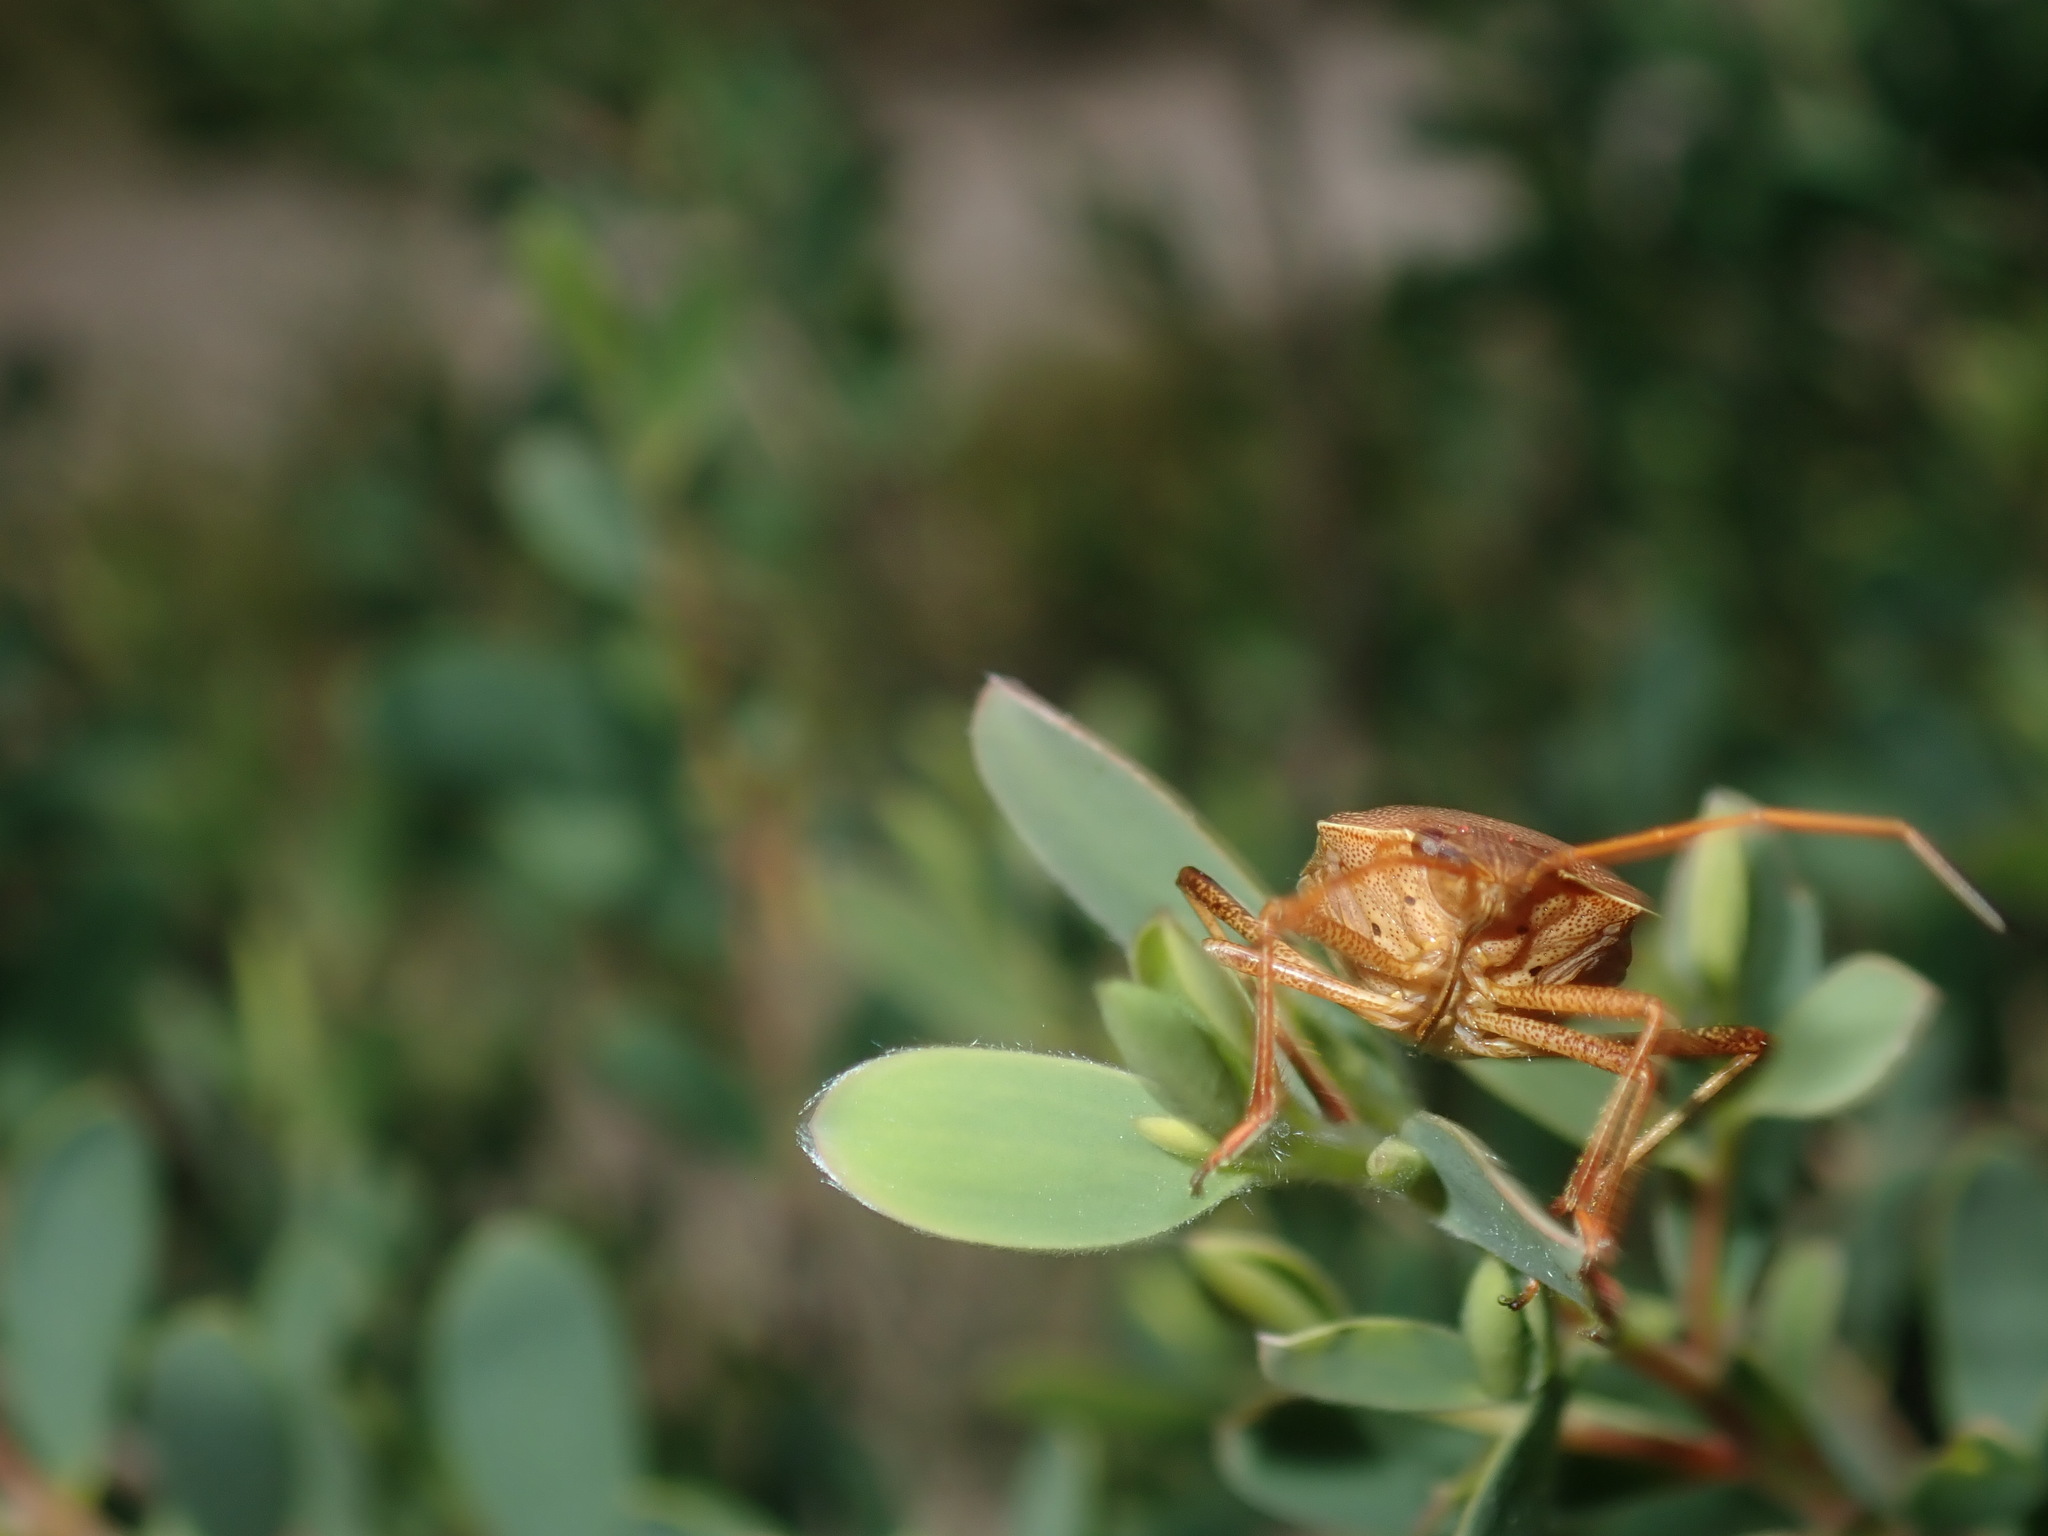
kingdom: Animalia
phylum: Arthropoda
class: Insecta
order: Hemiptera
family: Pentatomidae
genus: Poecilometis
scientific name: Poecilometis
